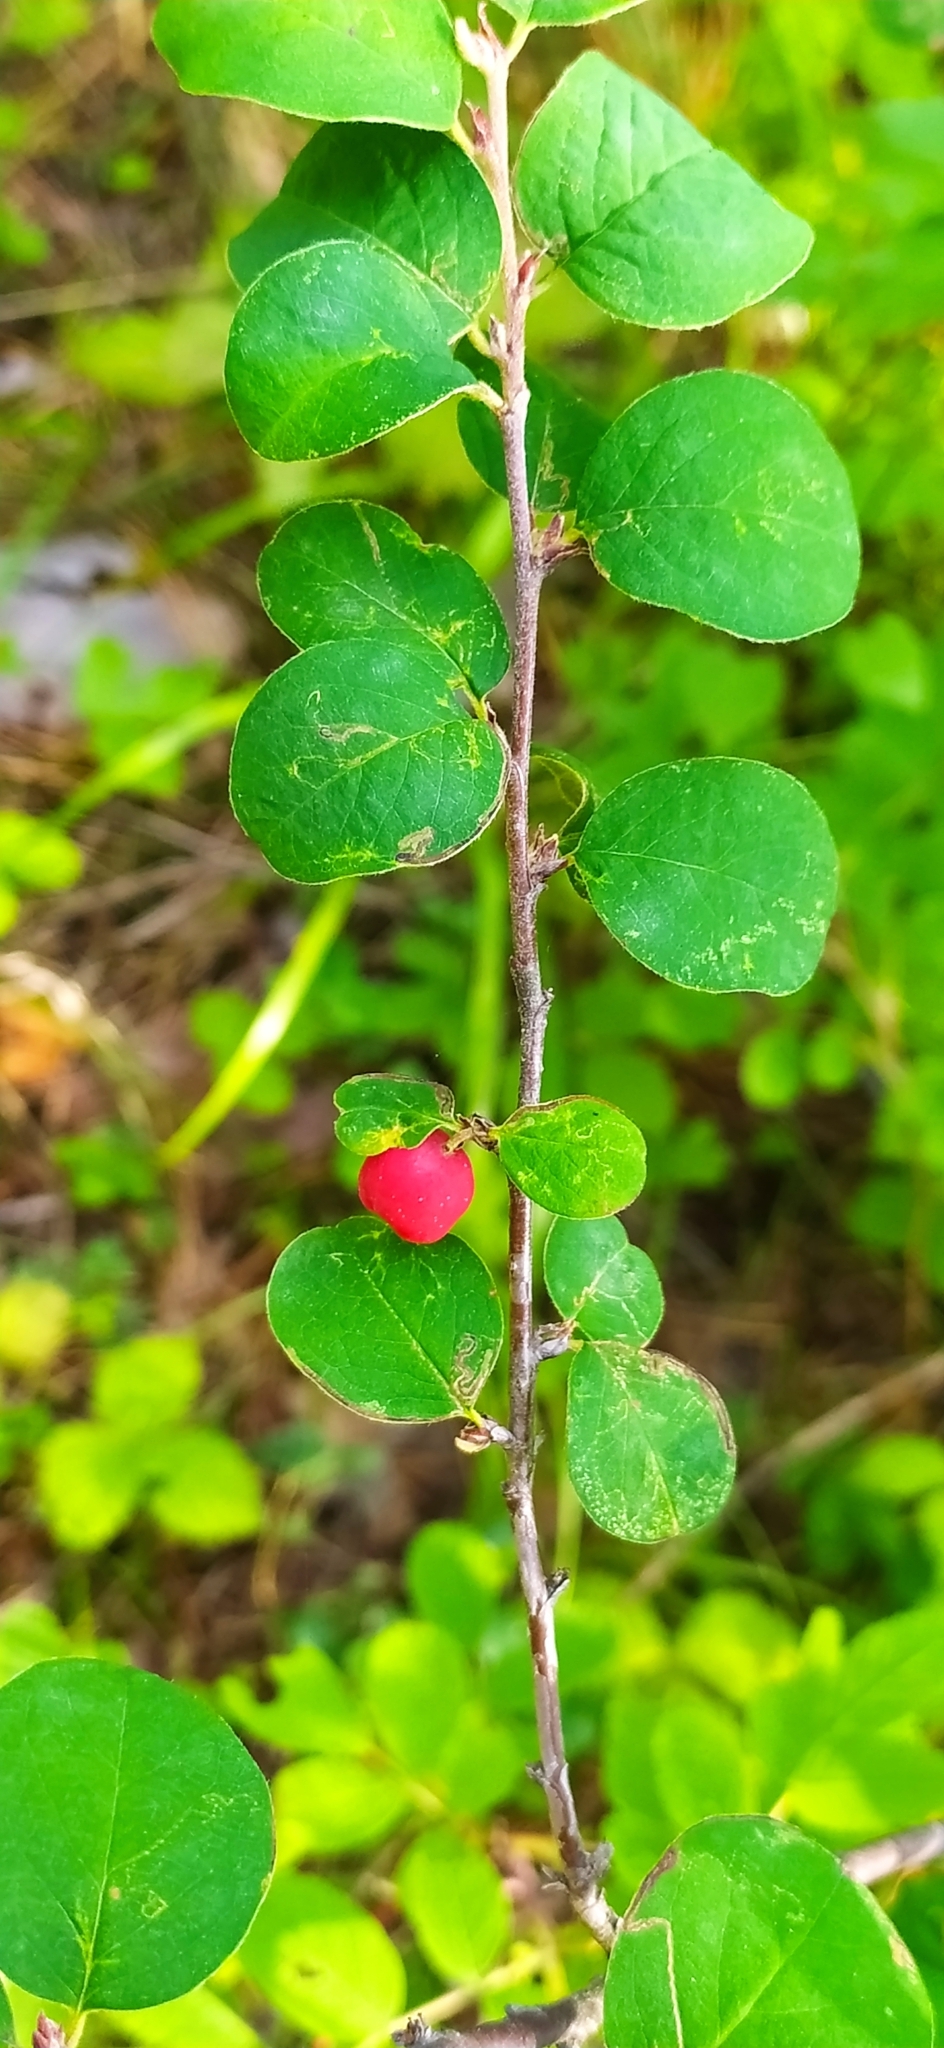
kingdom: Plantae
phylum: Tracheophyta
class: Magnoliopsida
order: Rosales
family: Rosaceae
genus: Cotoneaster
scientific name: Cotoneaster melanocarpus
